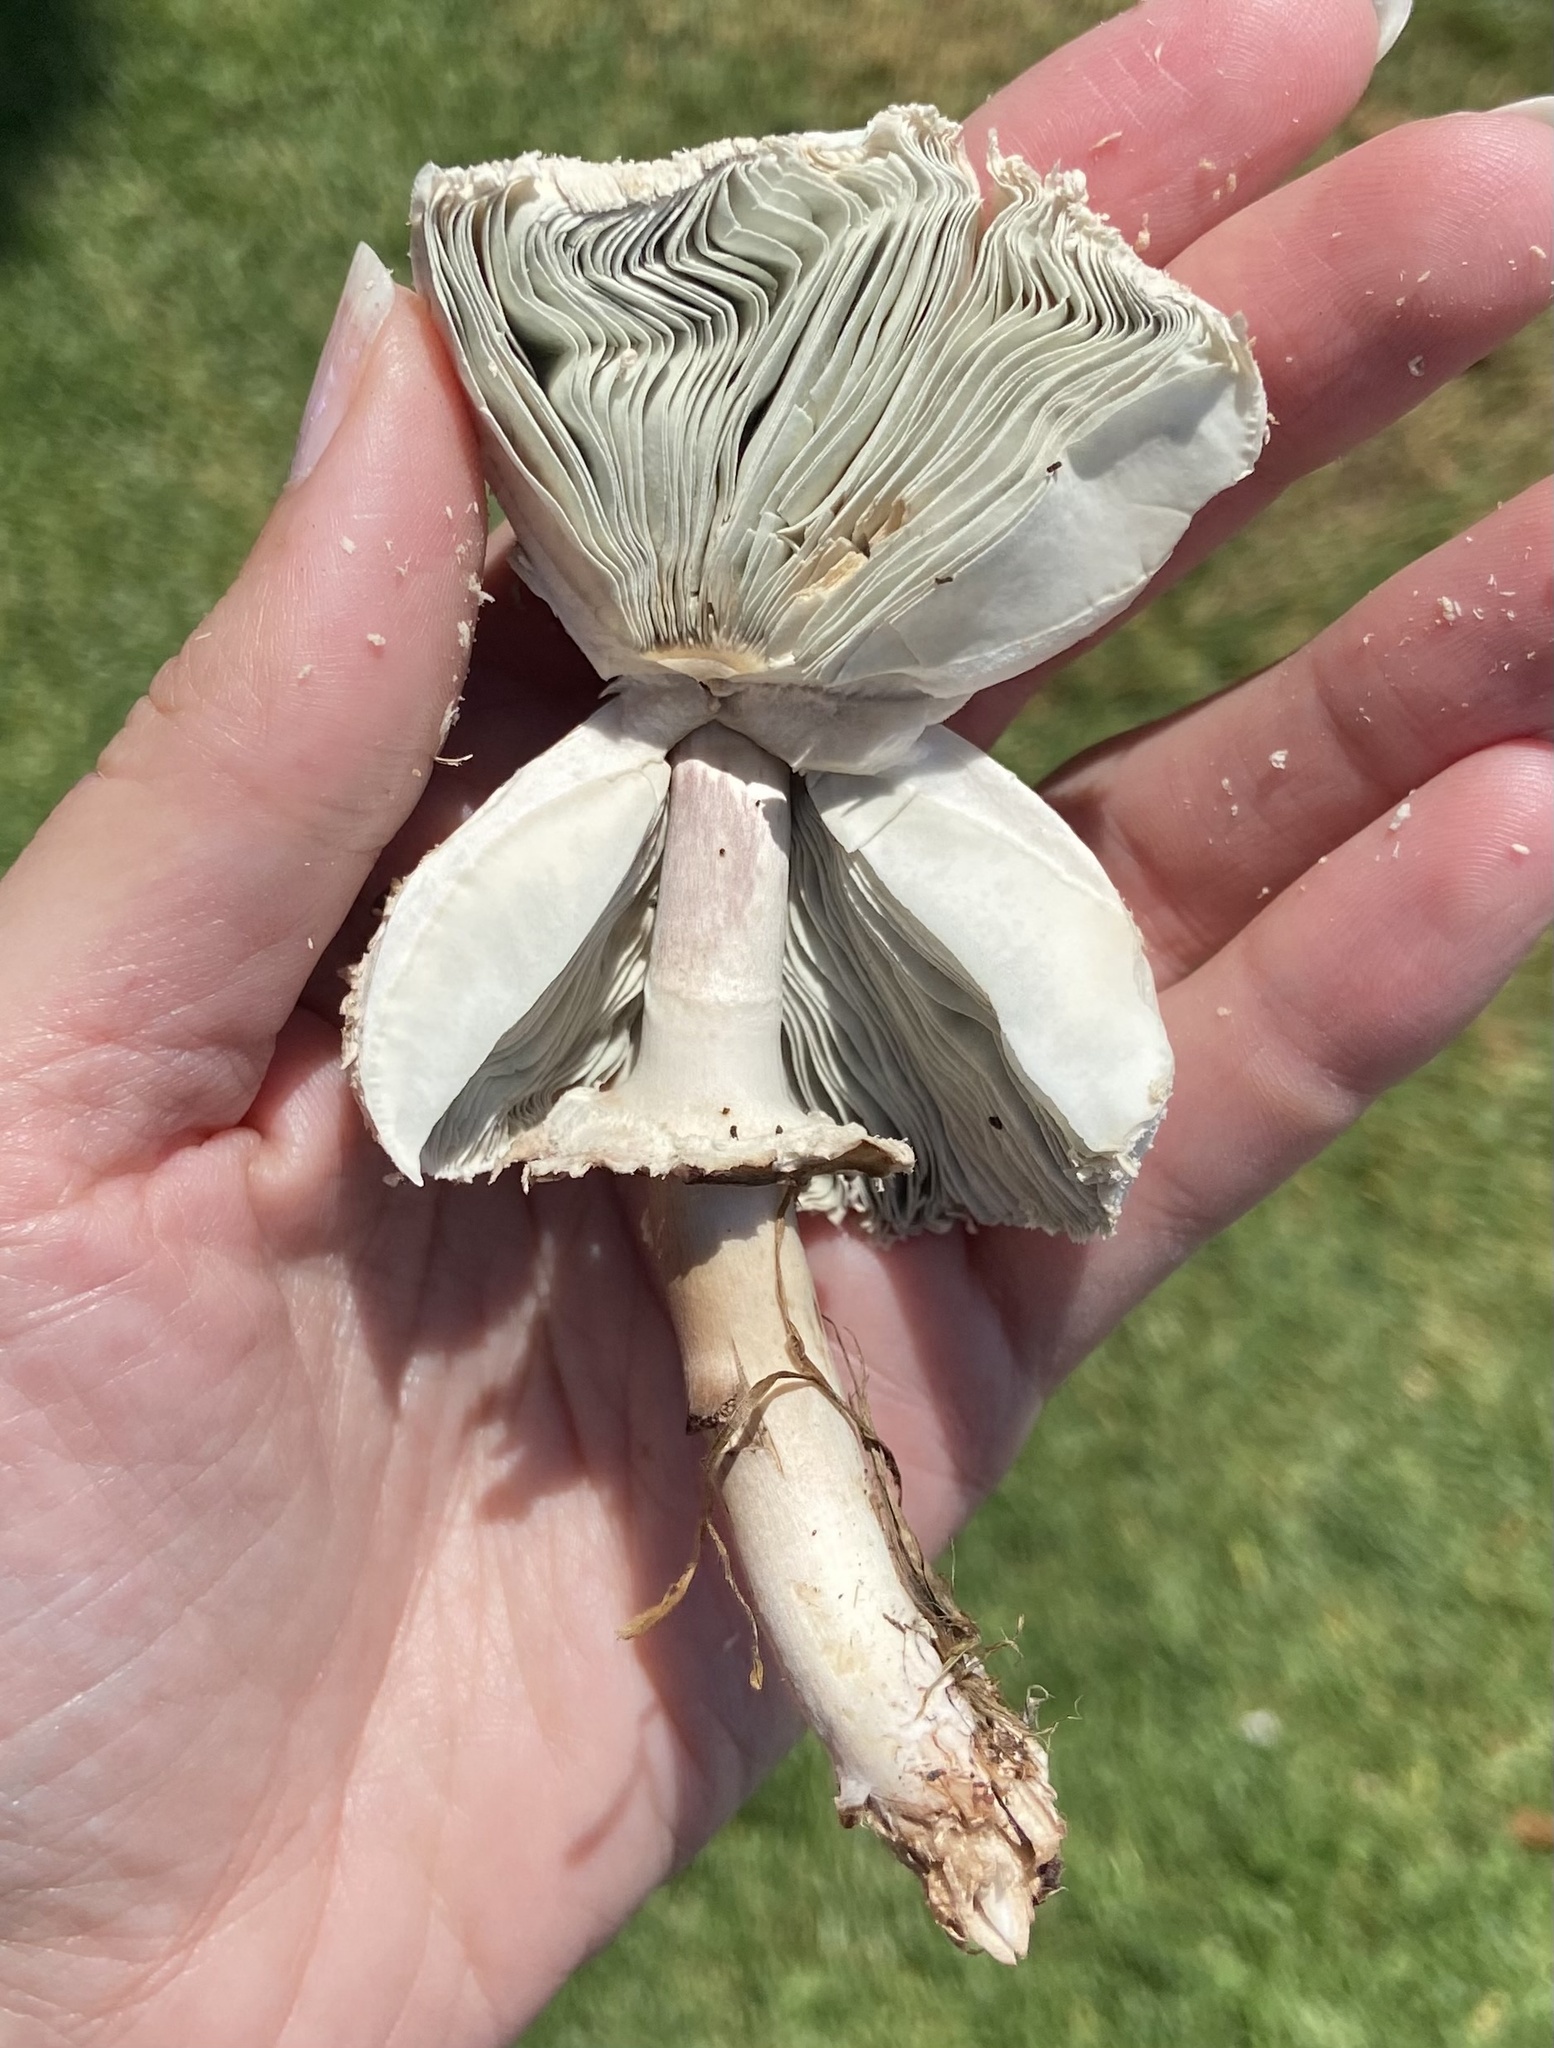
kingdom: Fungi
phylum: Basidiomycota
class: Agaricomycetes
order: Agaricales
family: Agaricaceae
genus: Chlorophyllum
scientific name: Chlorophyllum molybdites
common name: False parasol
